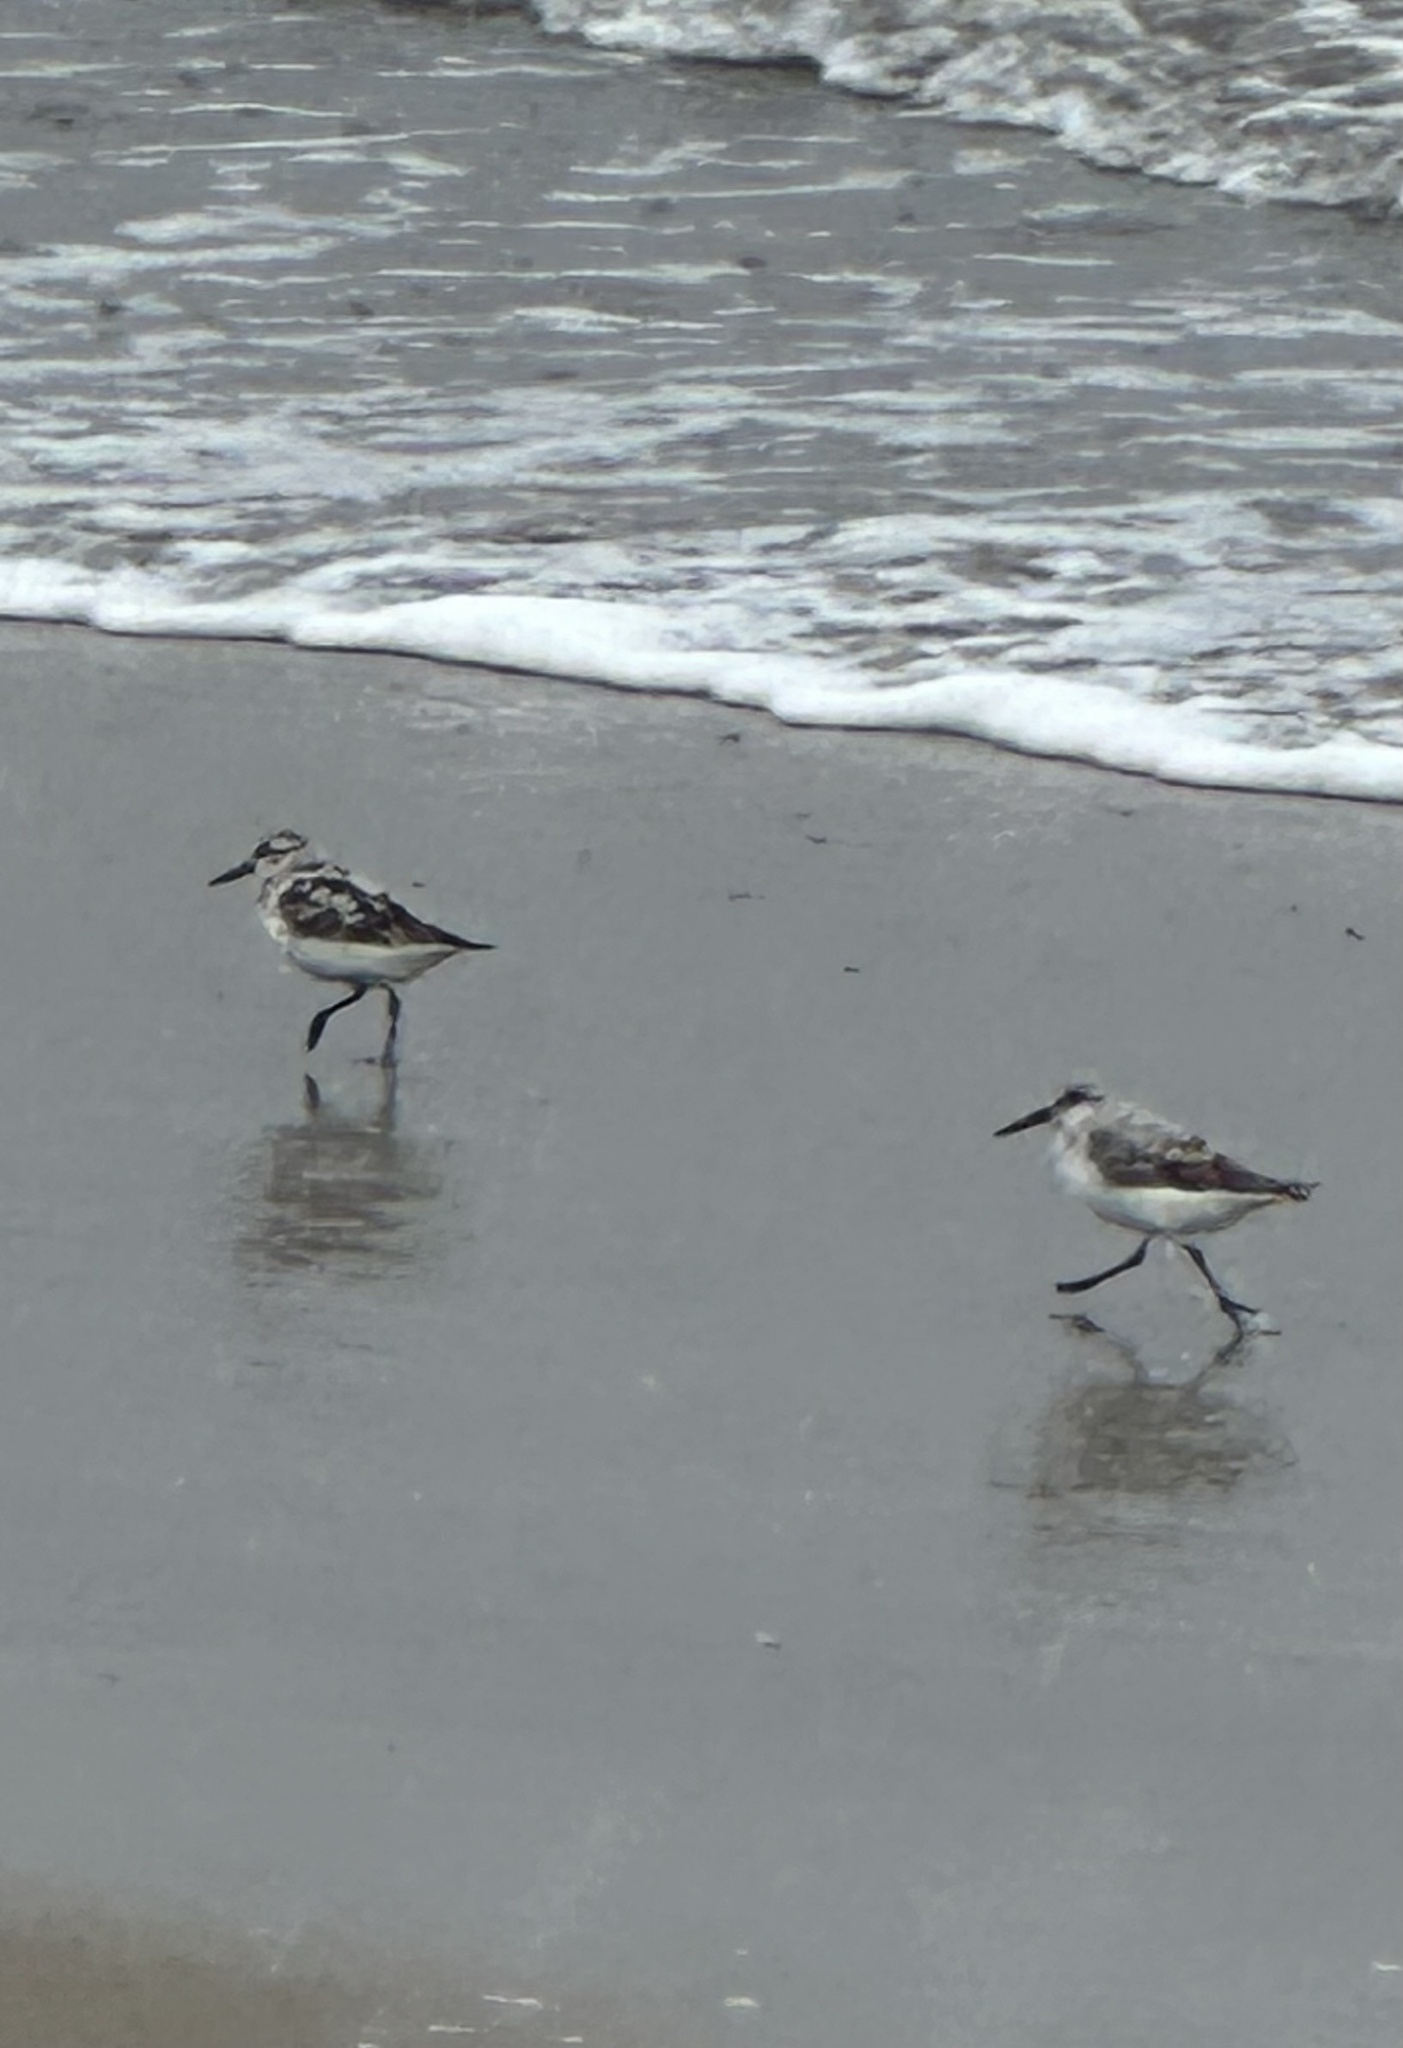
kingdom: Animalia
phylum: Chordata
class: Aves
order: Charadriiformes
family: Scolopacidae
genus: Calidris
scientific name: Calidris alba
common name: Sanderling
